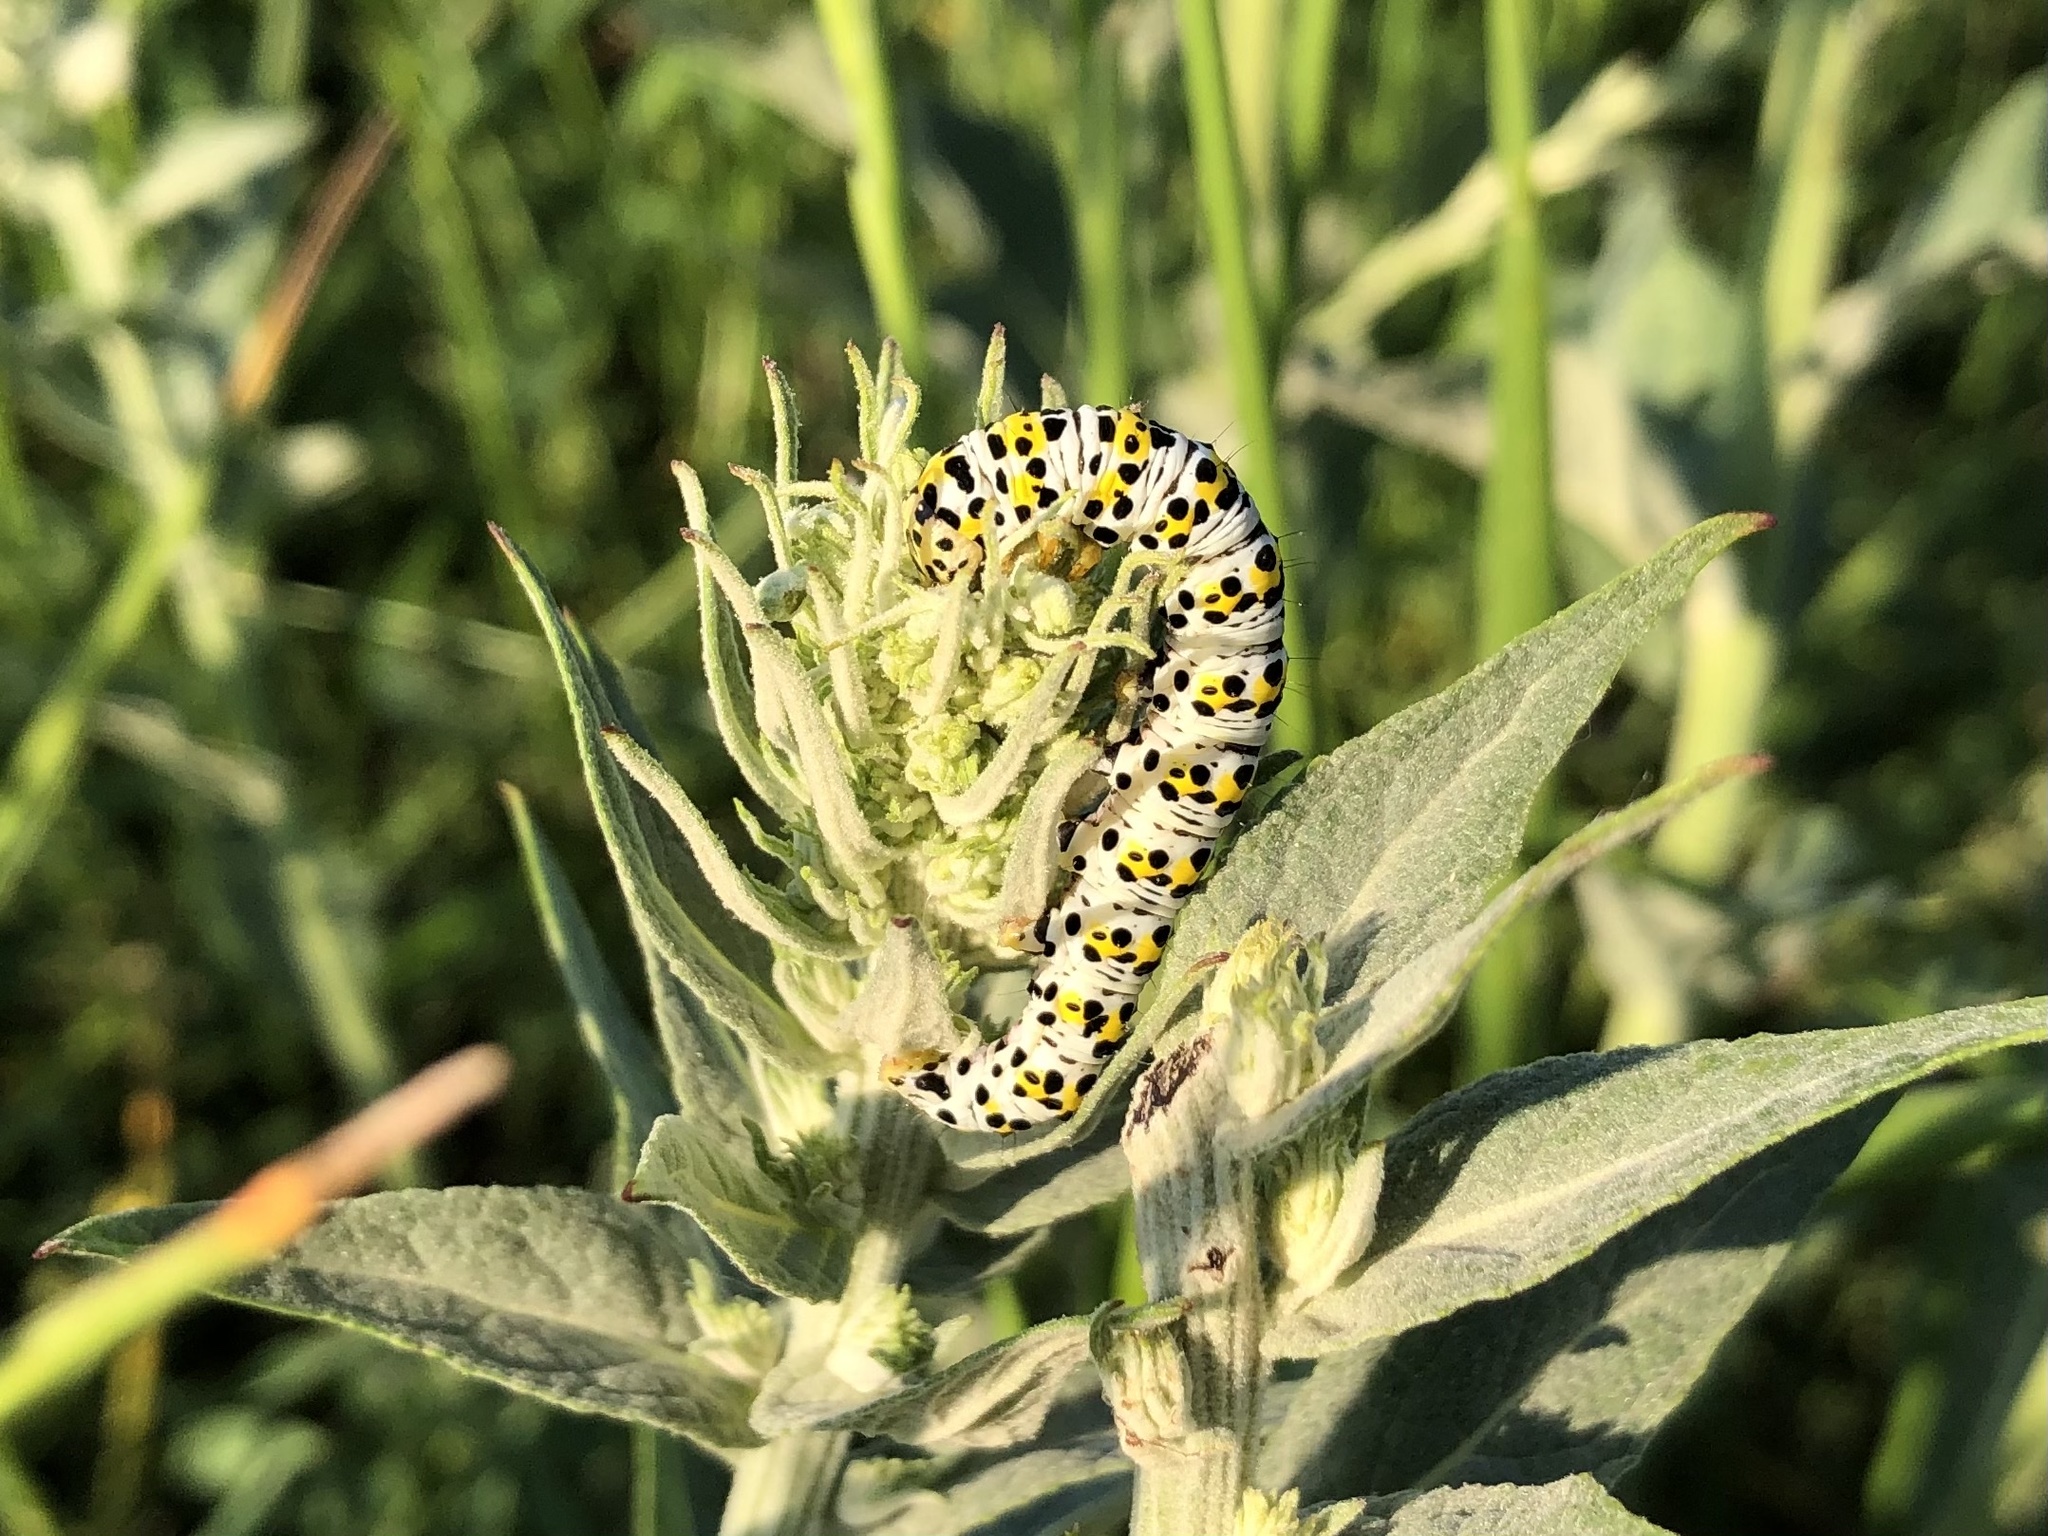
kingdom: Animalia
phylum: Arthropoda
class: Insecta
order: Lepidoptera
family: Noctuidae
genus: Cucullia
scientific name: Cucullia verbasci
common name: Mullein
